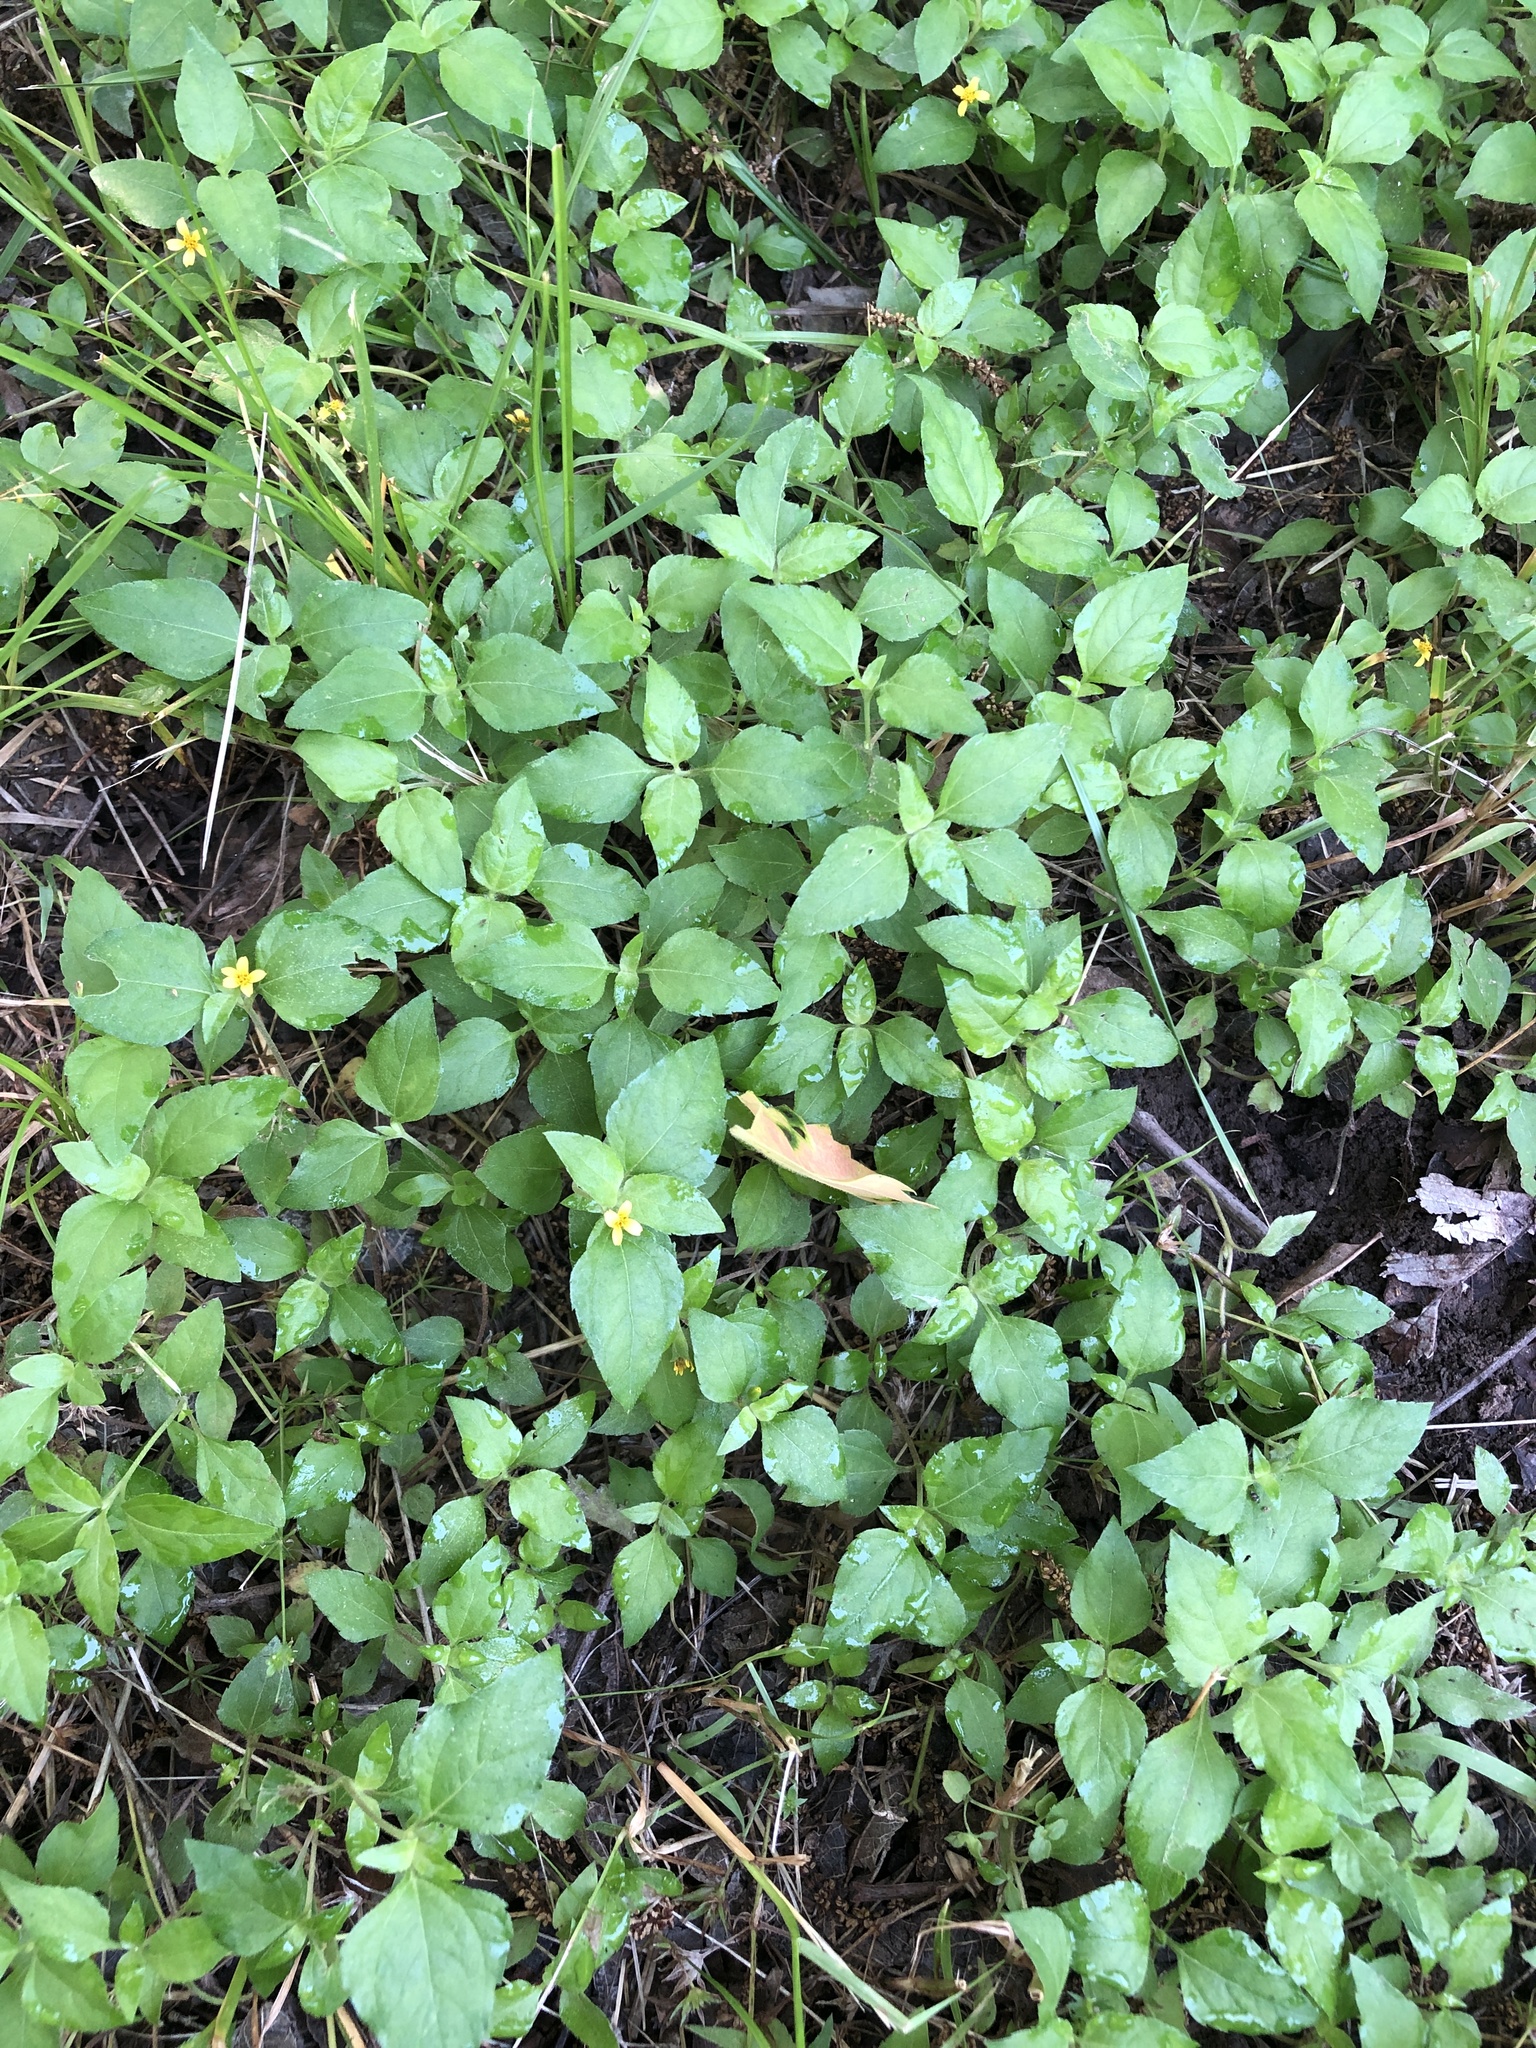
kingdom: Plantae
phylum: Tracheophyta
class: Magnoliopsida
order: Asterales
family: Asteraceae
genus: Calyptocarpus
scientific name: Calyptocarpus vialis
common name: Straggler daisy
